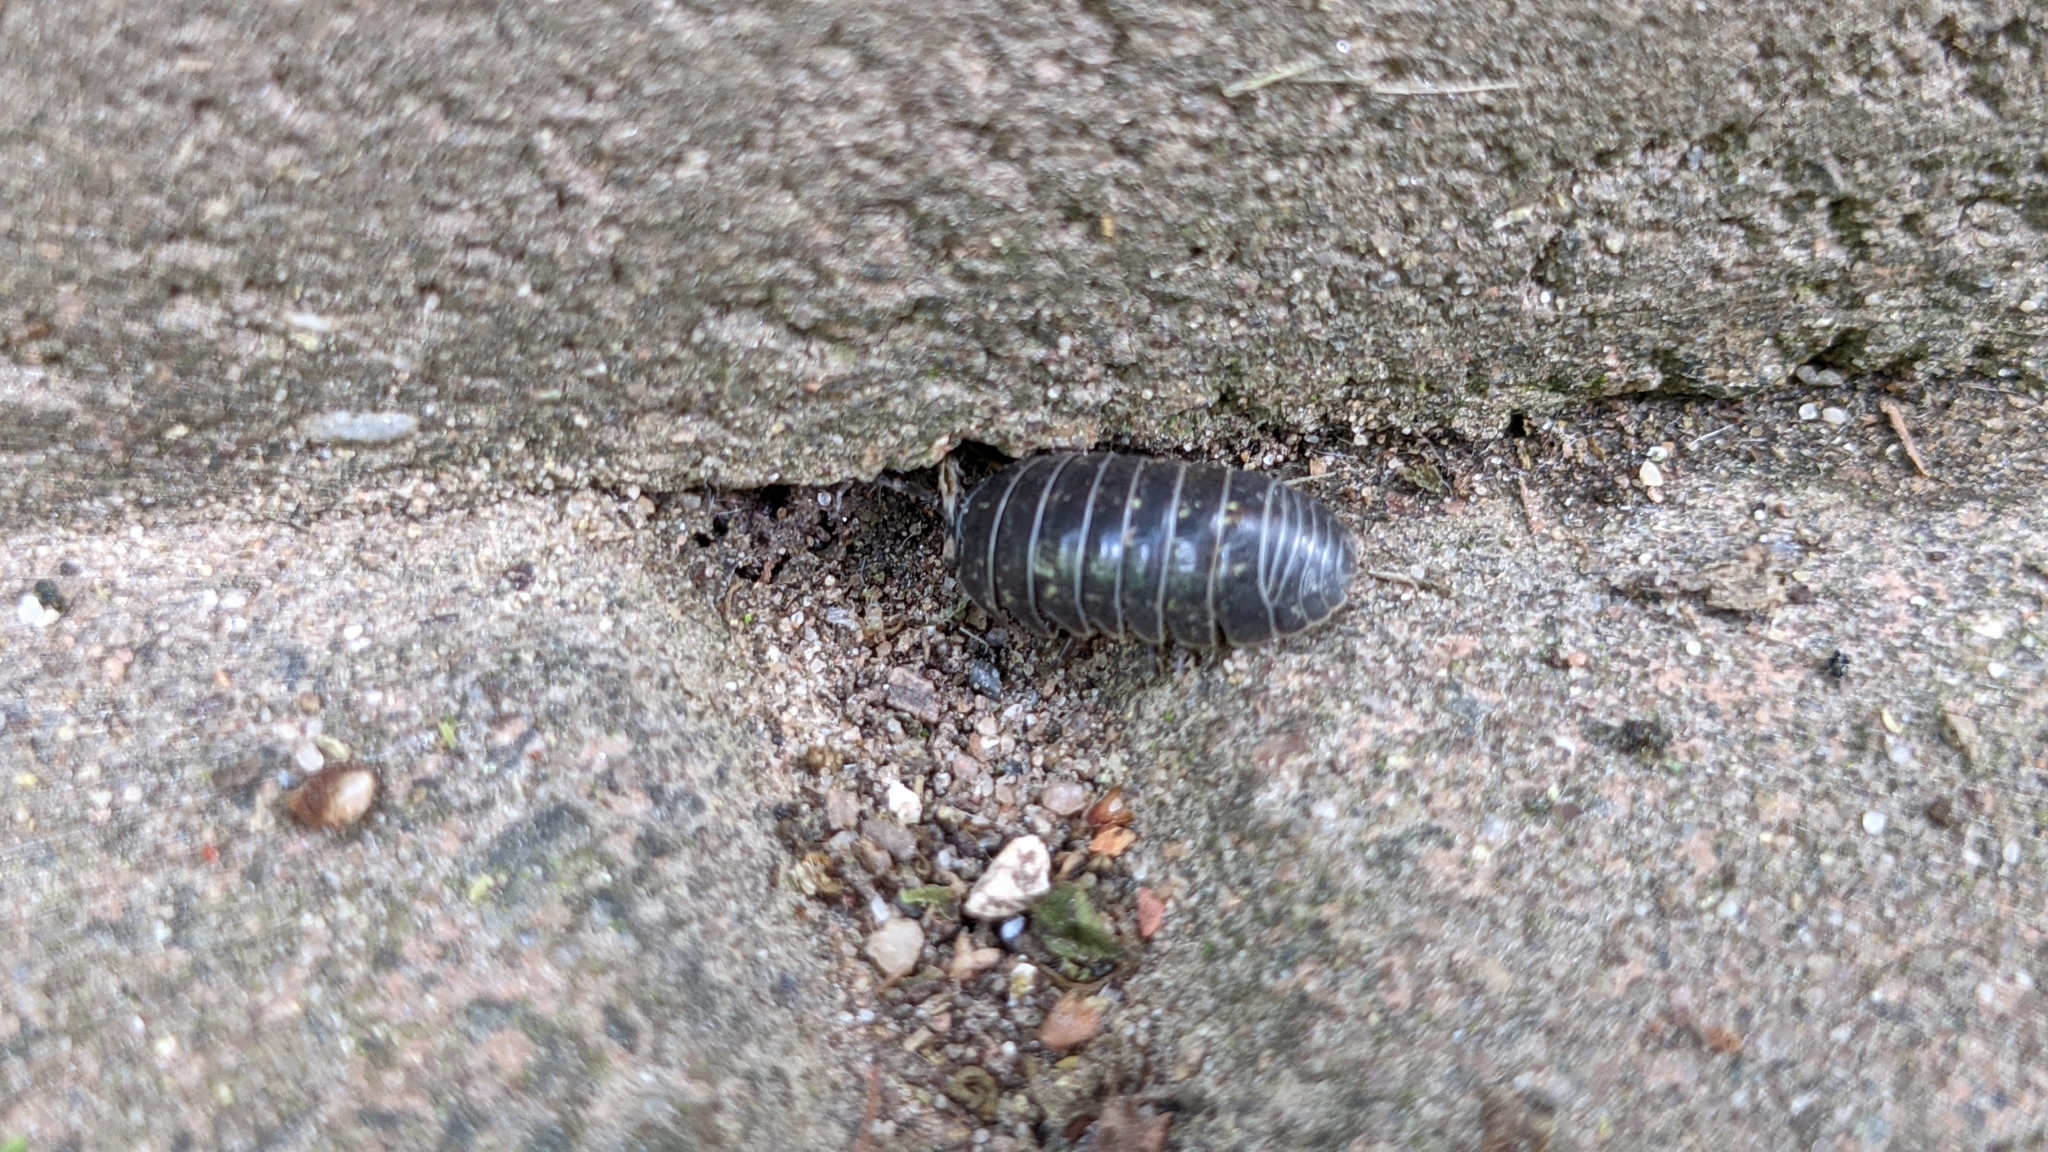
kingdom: Animalia
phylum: Arthropoda
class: Malacostraca
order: Isopoda
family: Armadillidiidae
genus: Armadillidium
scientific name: Armadillidium vulgare
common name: Common pill woodlouse
